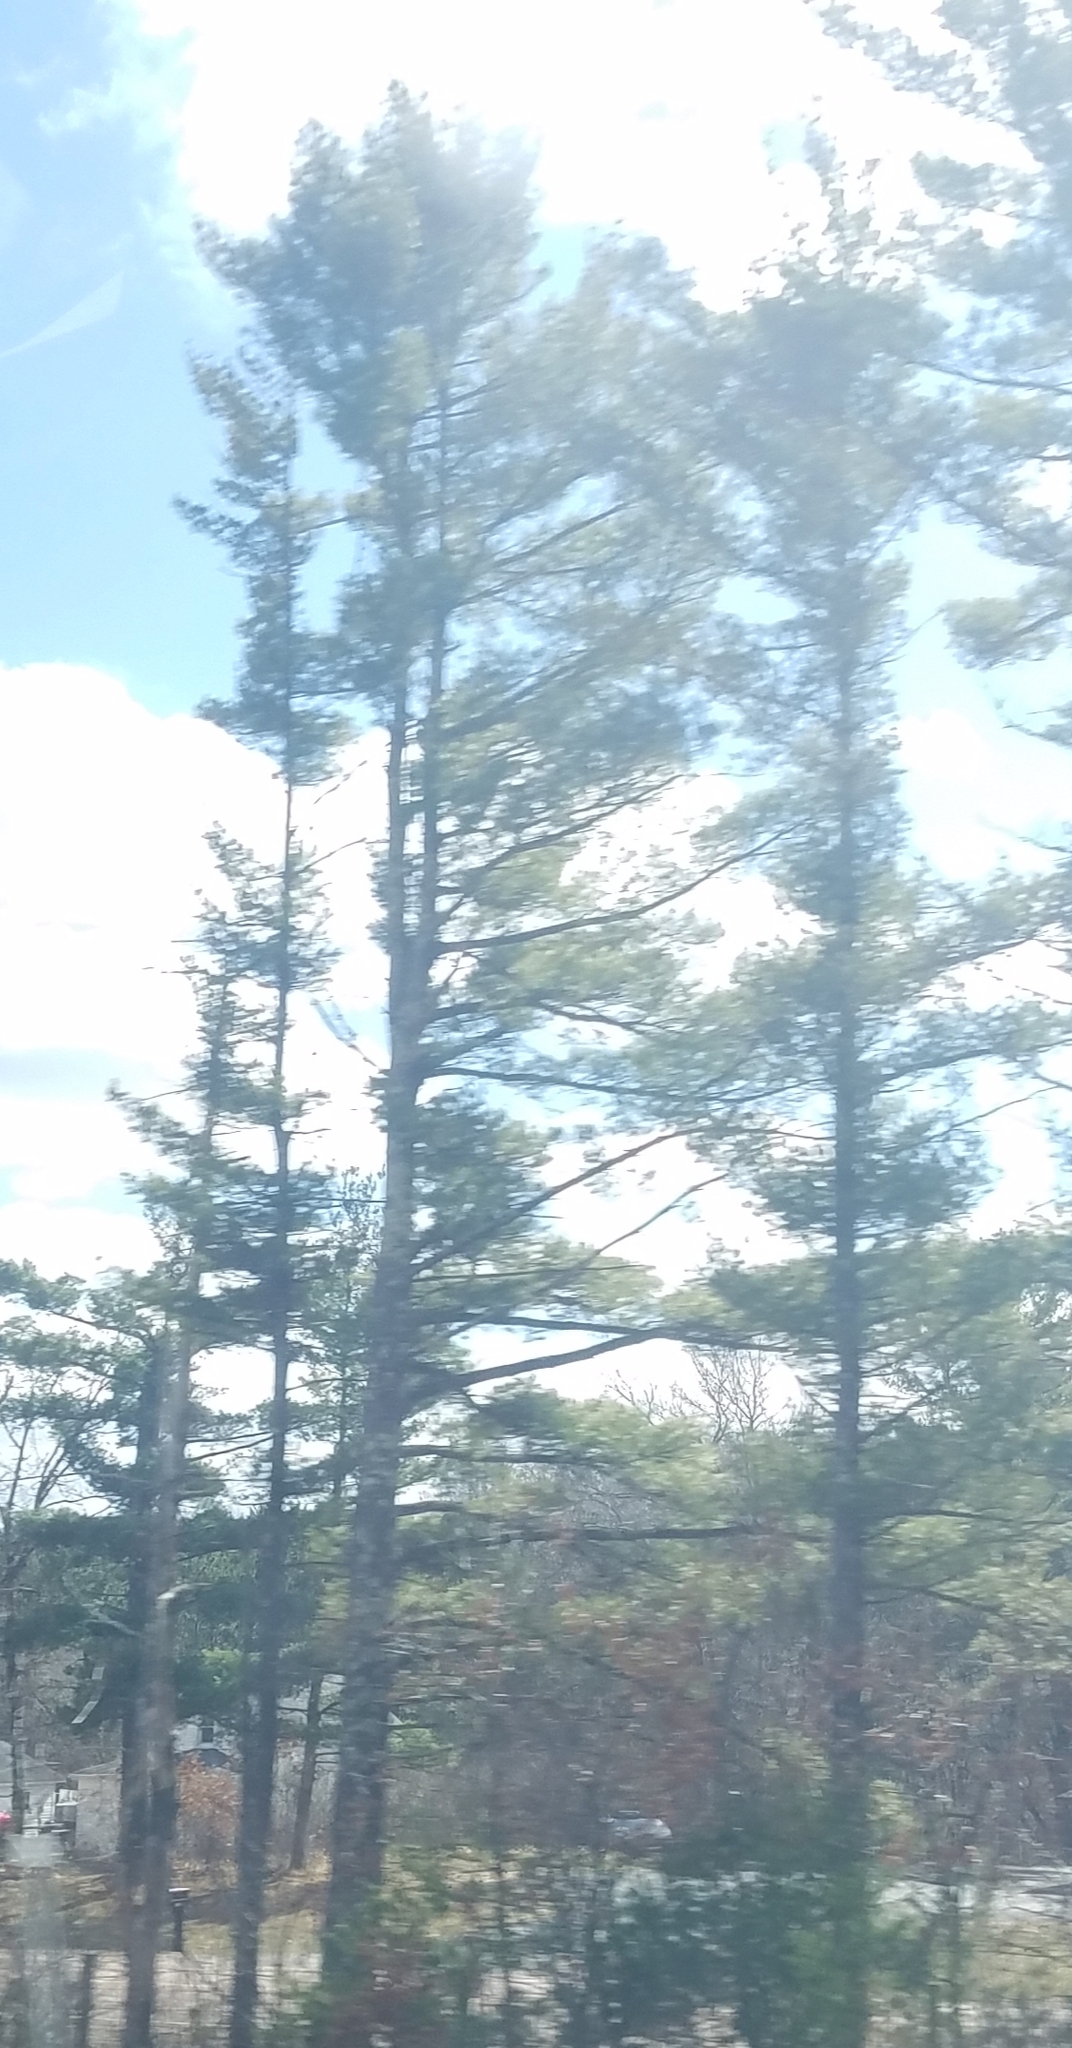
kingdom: Plantae
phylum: Tracheophyta
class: Pinopsida
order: Pinales
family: Pinaceae
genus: Pinus
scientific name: Pinus strobus
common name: Weymouth pine
